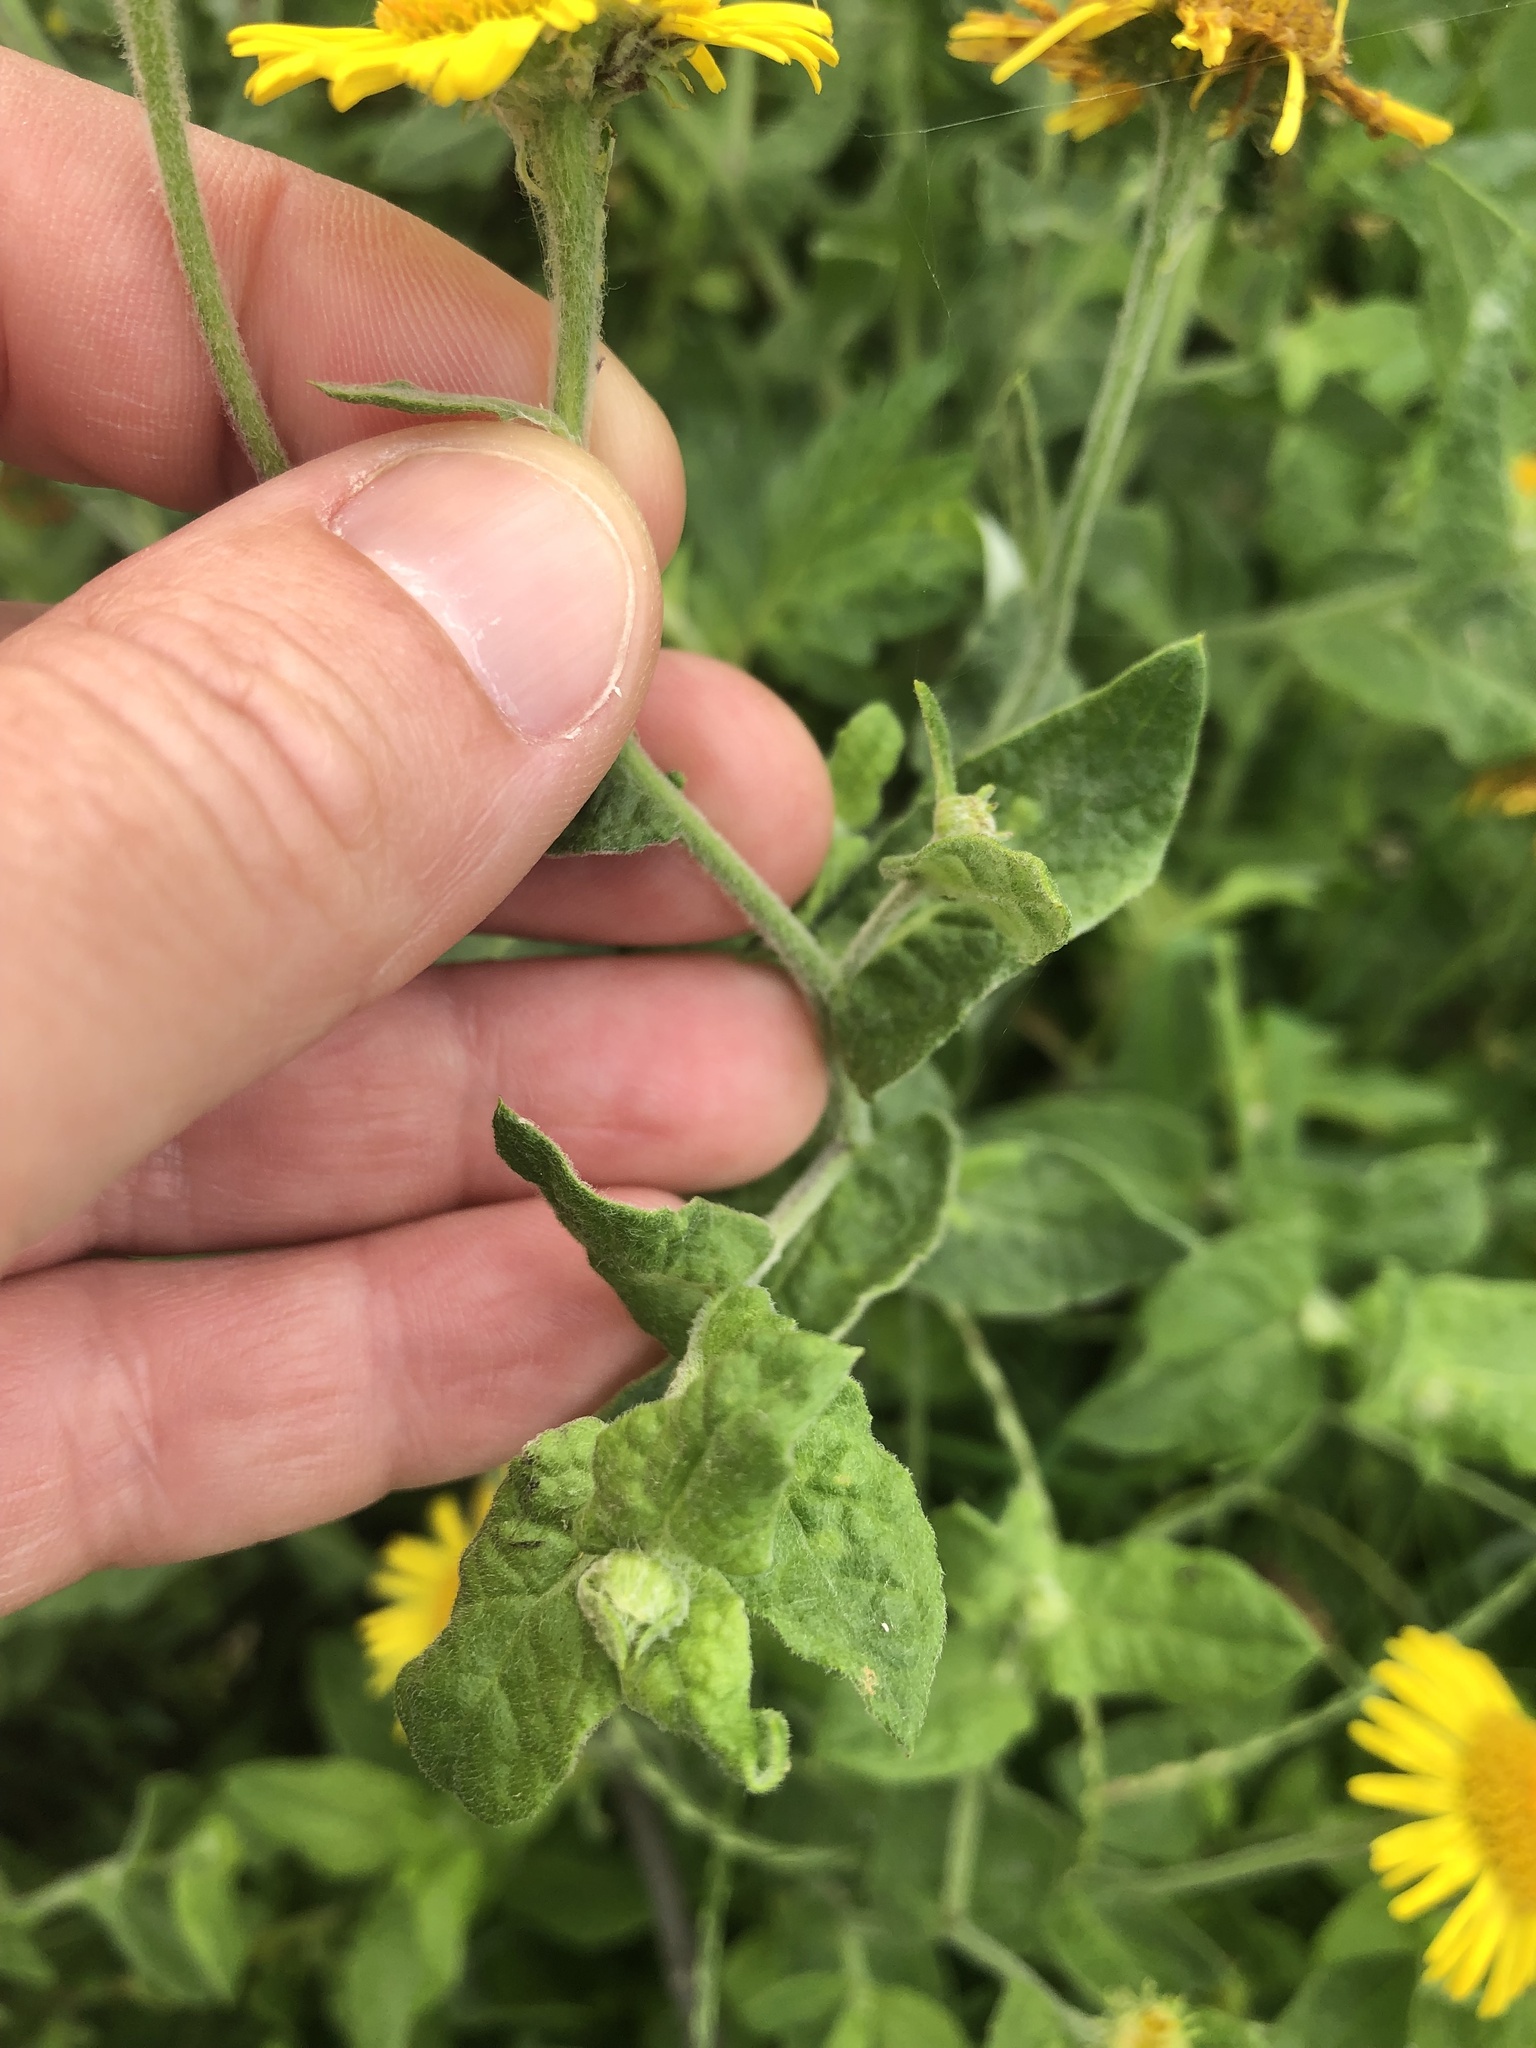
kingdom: Plantae
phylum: Tracheophyta
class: Magnoliopsida
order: Asterales
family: Asteraceae
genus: Pulicaria
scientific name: Pulicaria dysenterica
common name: Common fleabane
